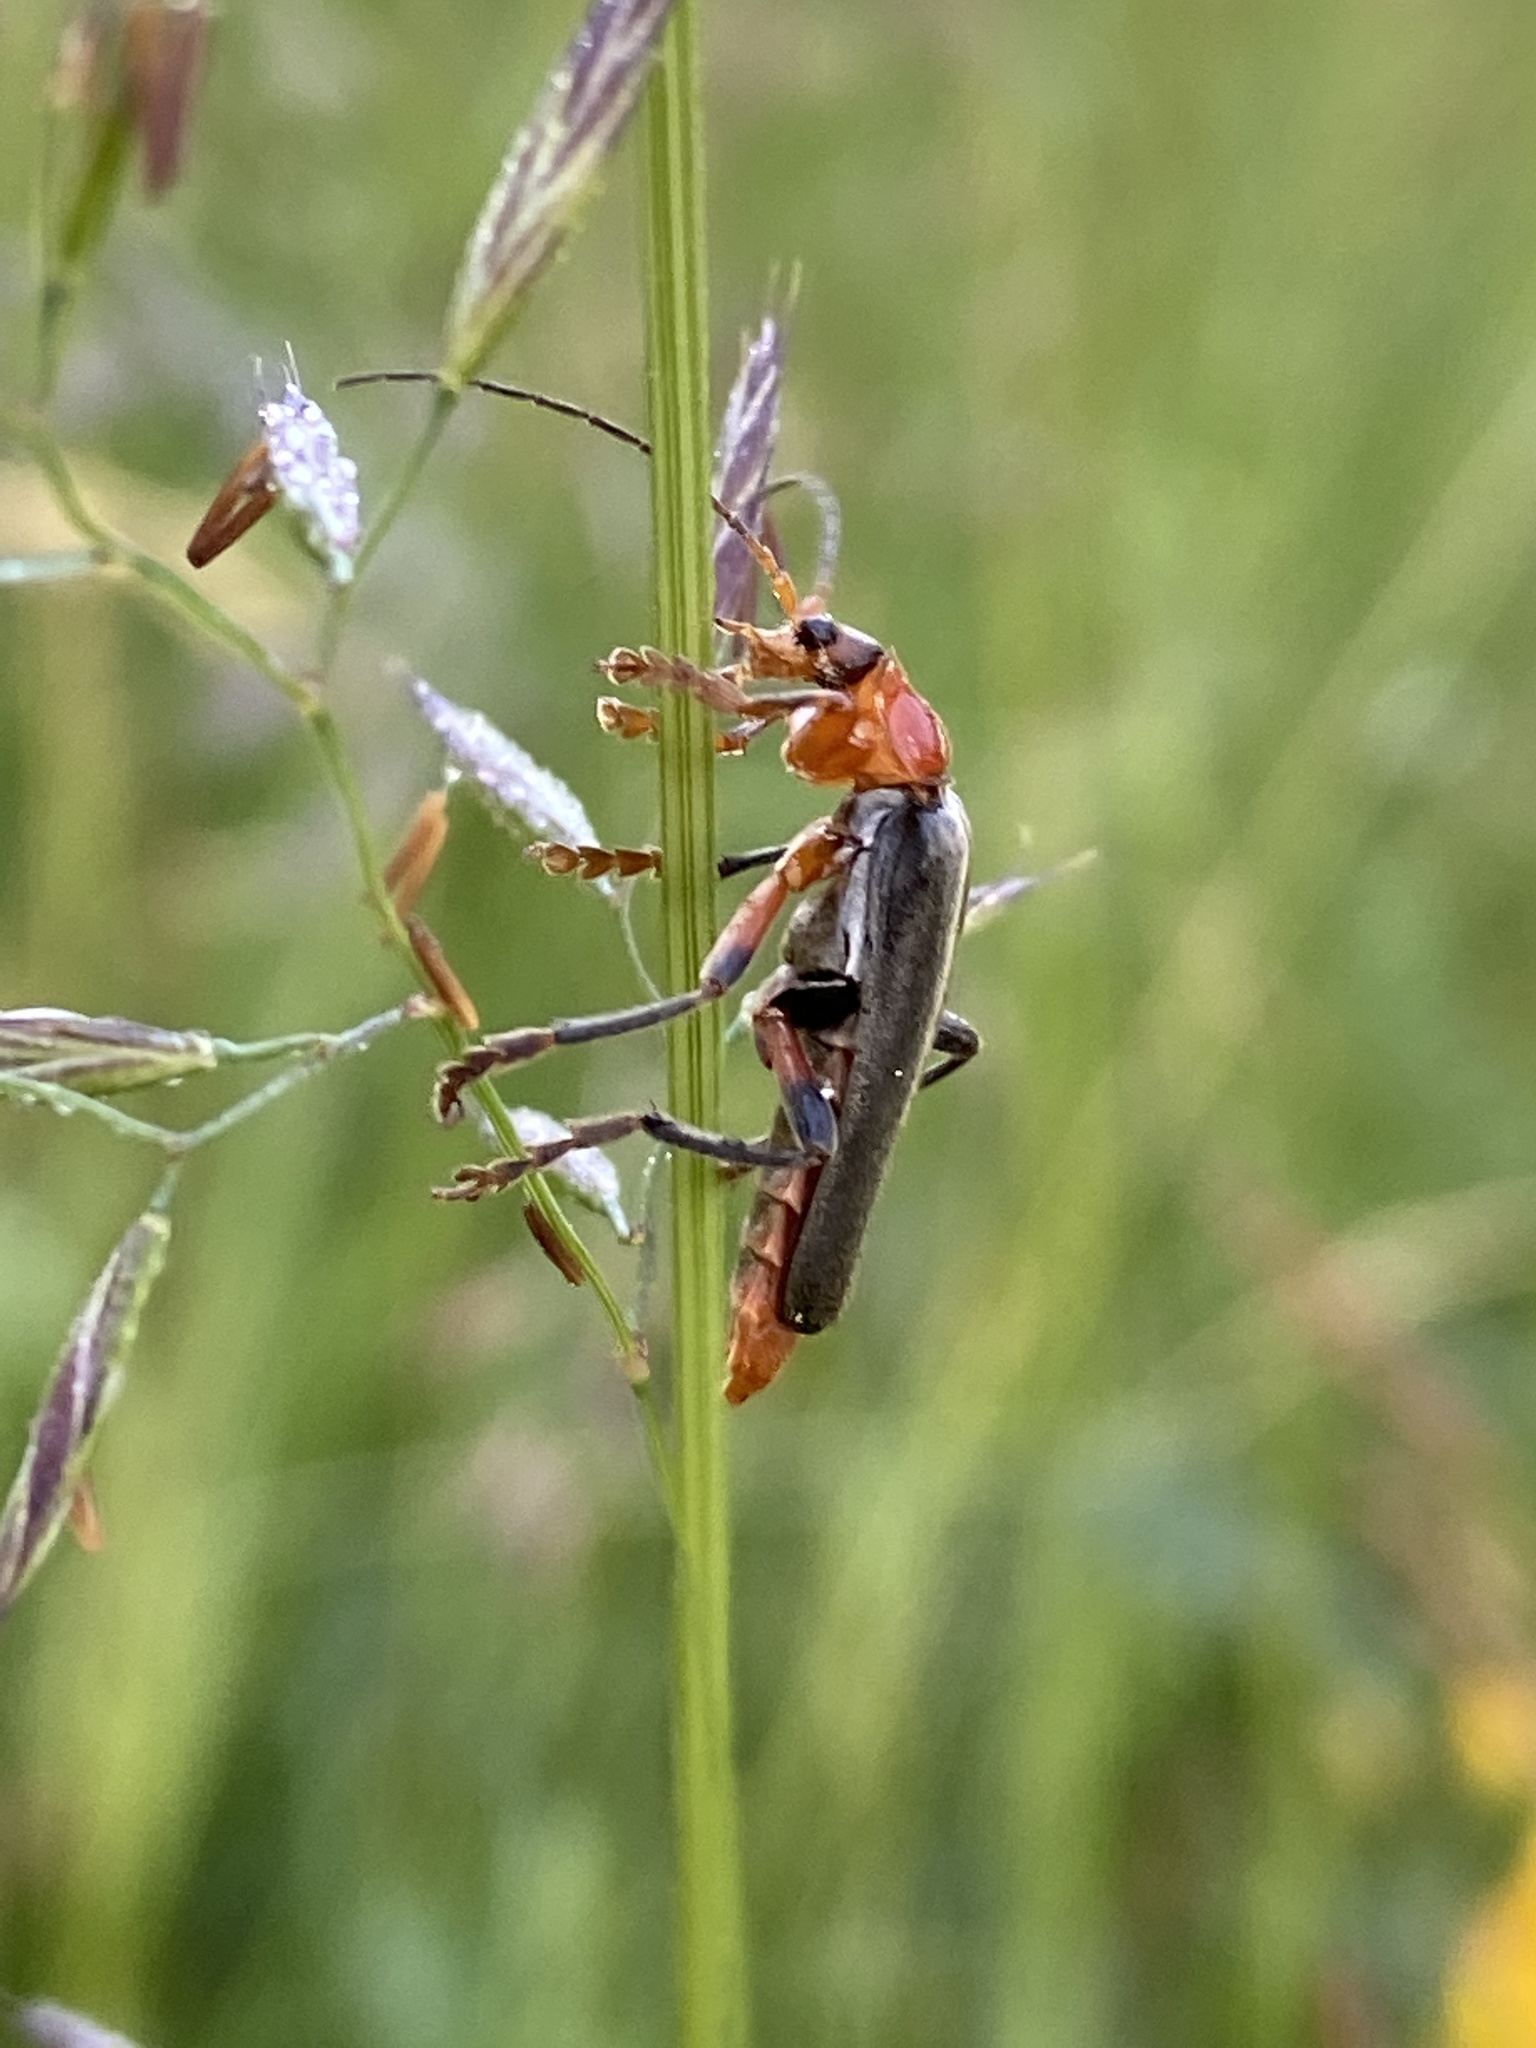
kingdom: Animalia
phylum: Arthropoda
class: Insecta
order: Coleoptera
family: Cantharidae
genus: Cantharis
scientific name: Cantharis livida
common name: Livid soldier beetle
